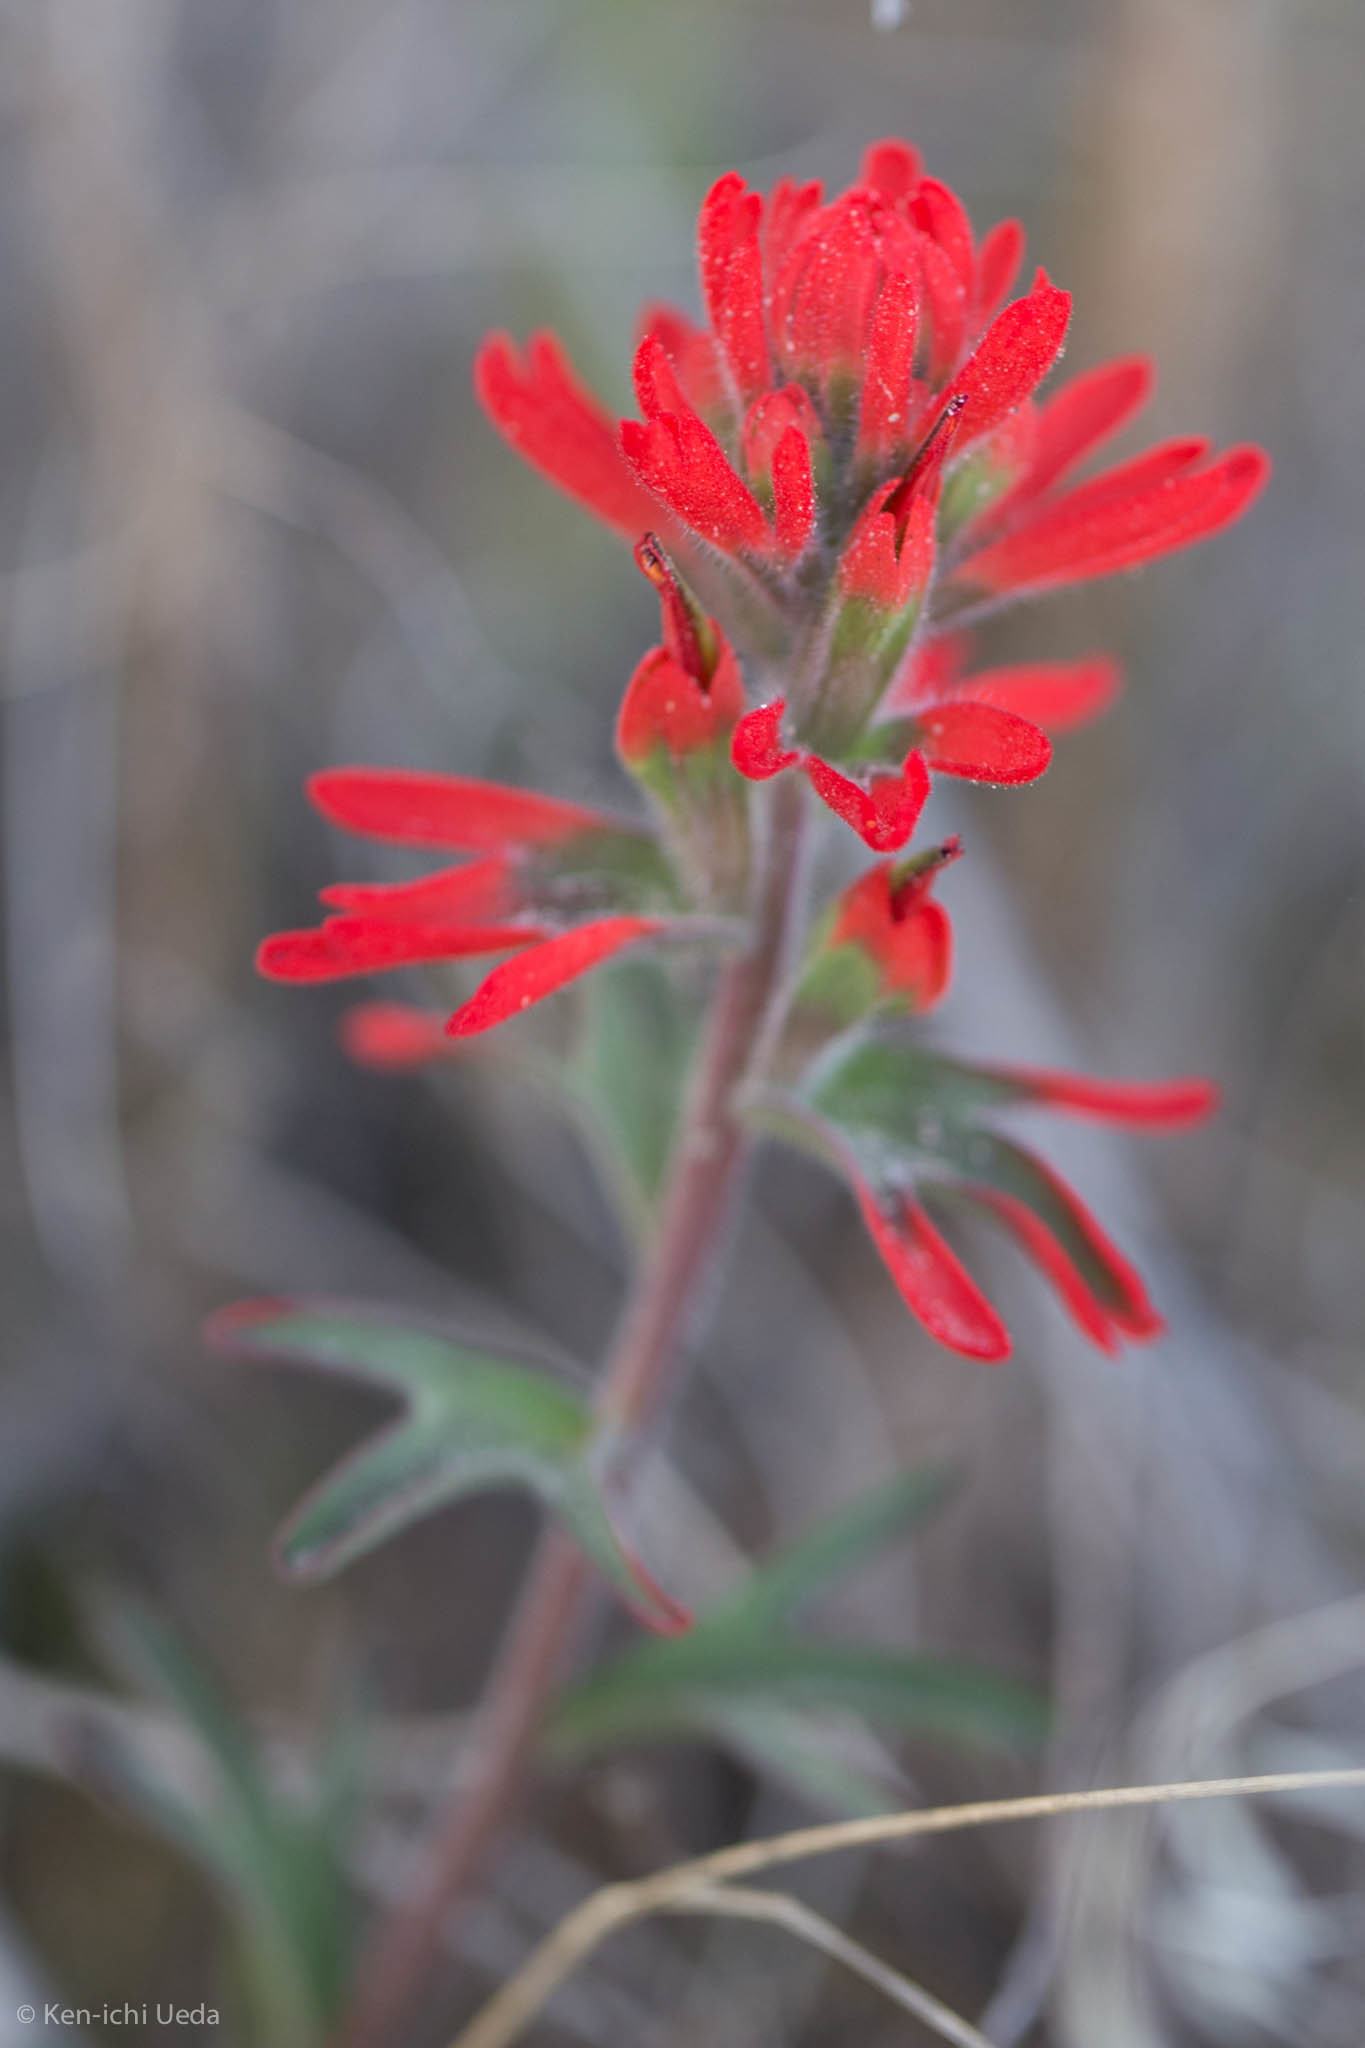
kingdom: Plantae
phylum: Tracheophyta
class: Magnoliopsida
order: Lamiales
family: Orobanchaceae
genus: Castilleja
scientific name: Castilleja chromosa
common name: Desert paintbrush
